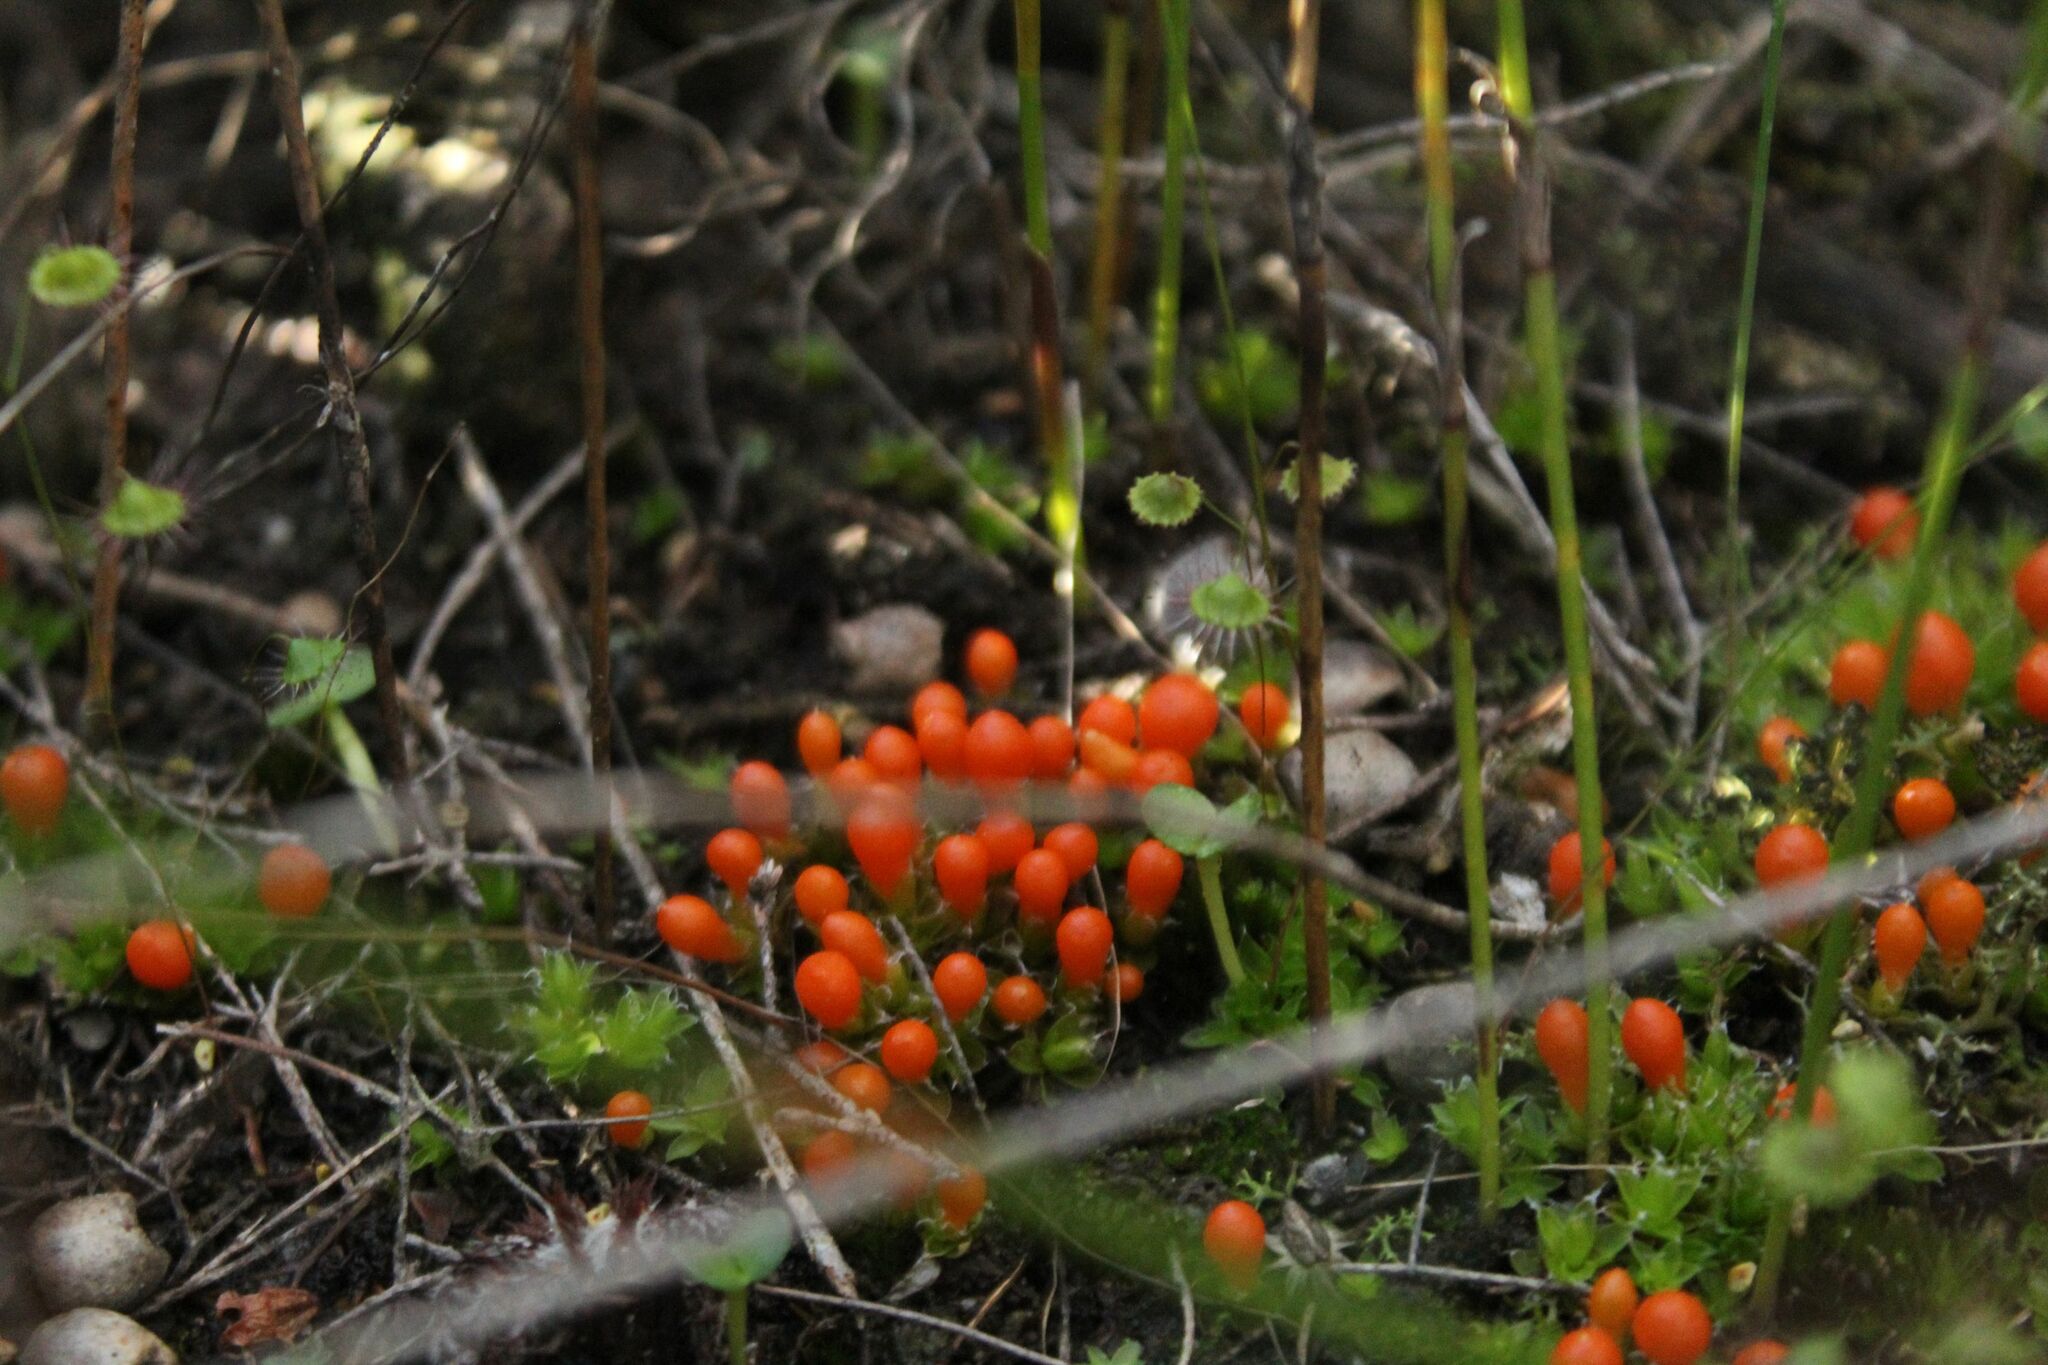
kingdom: Plantae
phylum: Bryophyta
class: Bryopsida
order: Pottiales
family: Pleurophascaceae
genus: Pleurophascum
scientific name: Pleurophascum occidentale
